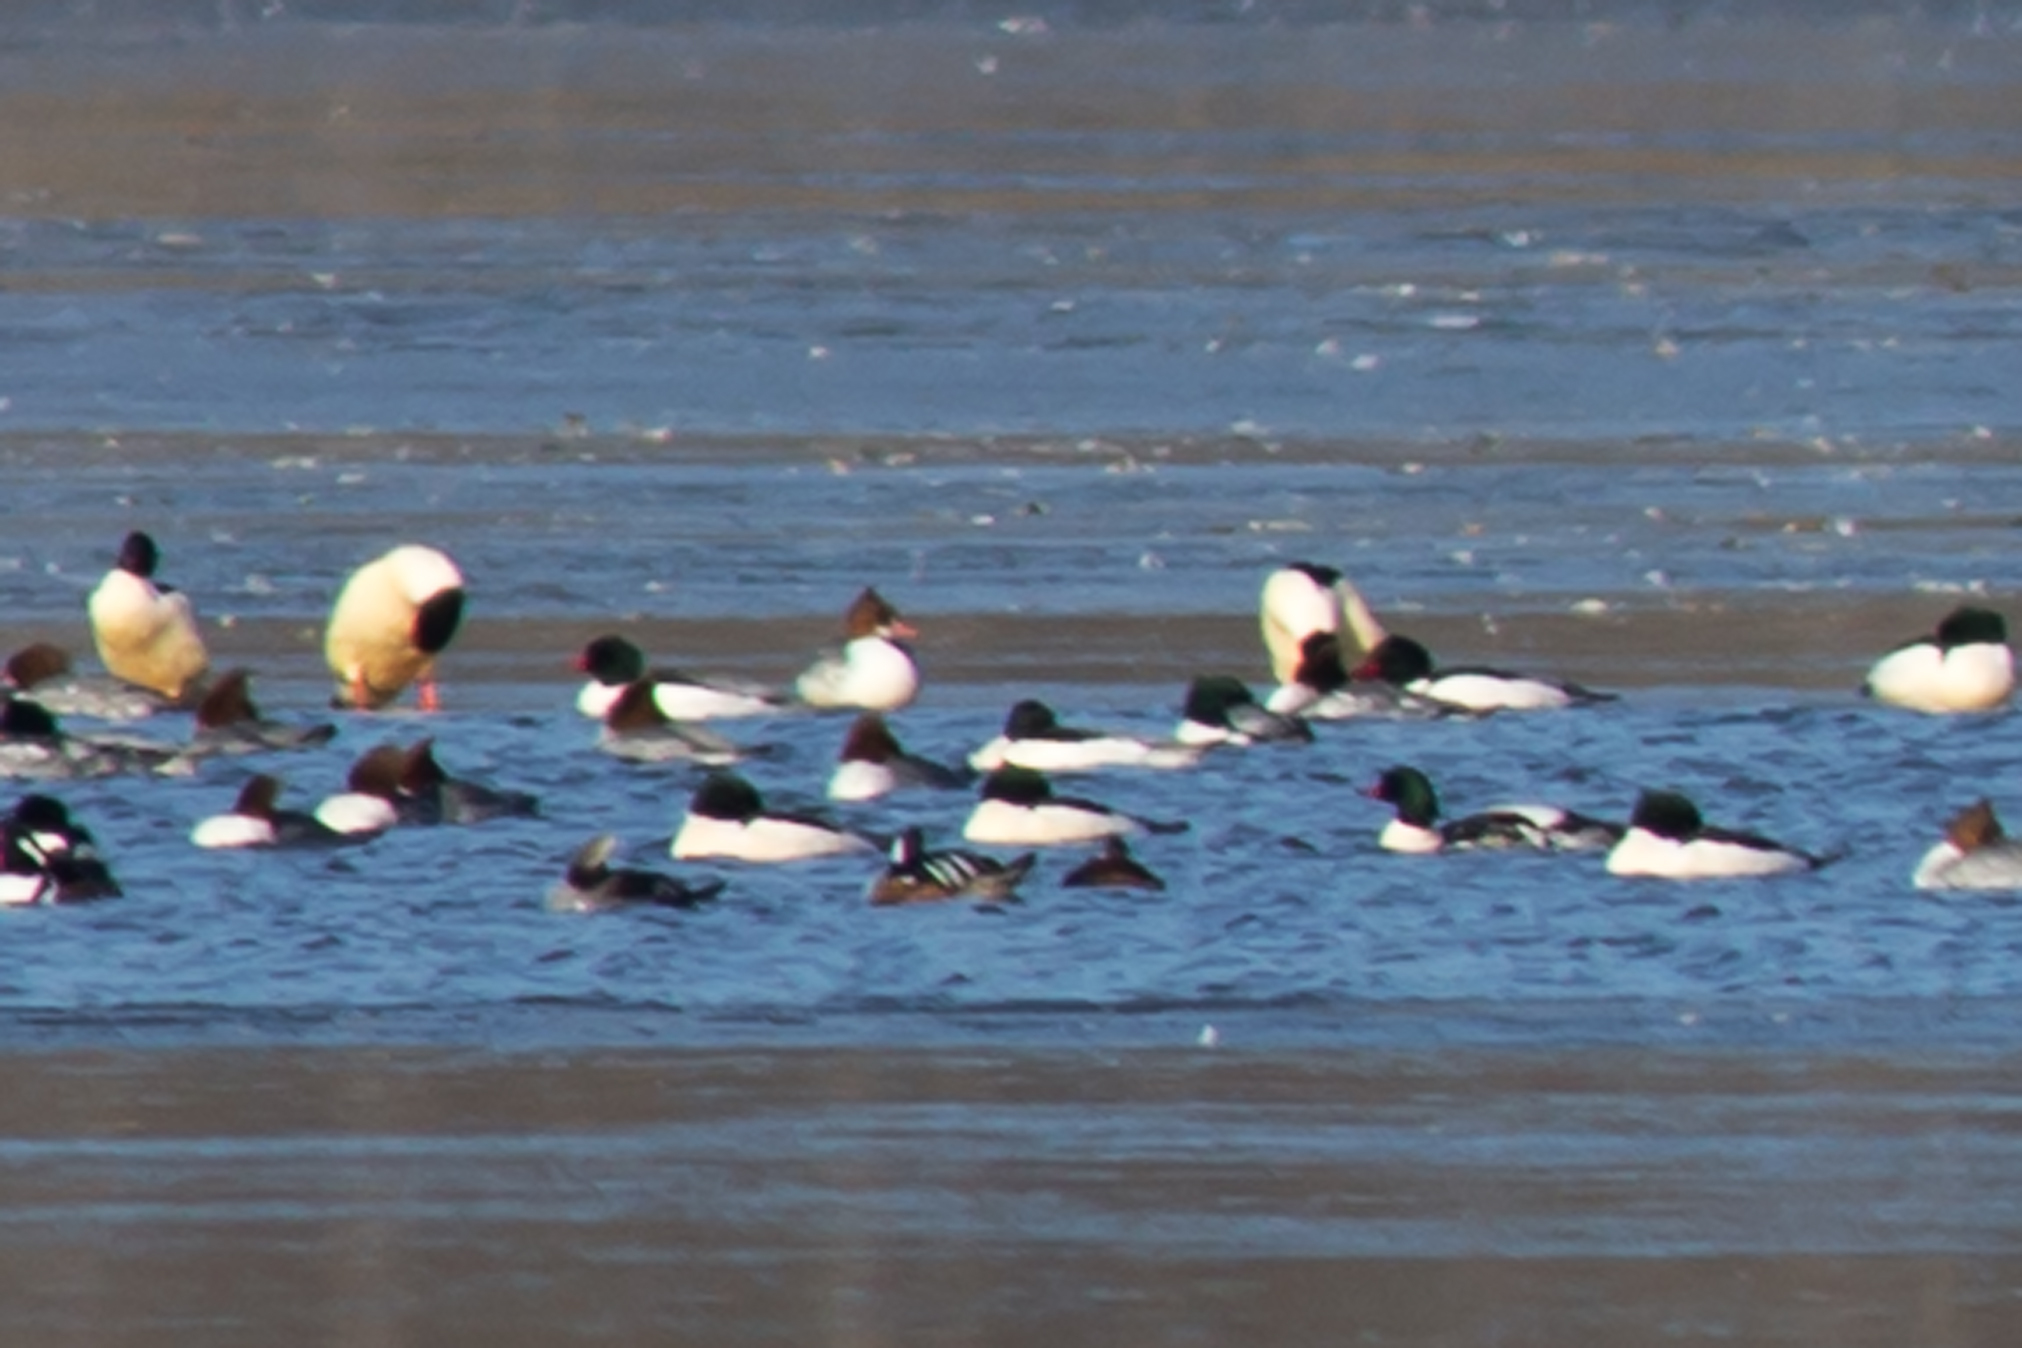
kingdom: Animalia
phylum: Chordata
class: Aves
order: Anseriformes
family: Anatidae
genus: Lophodytes
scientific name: Lophodytes cucullatus
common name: Hooded merganser
